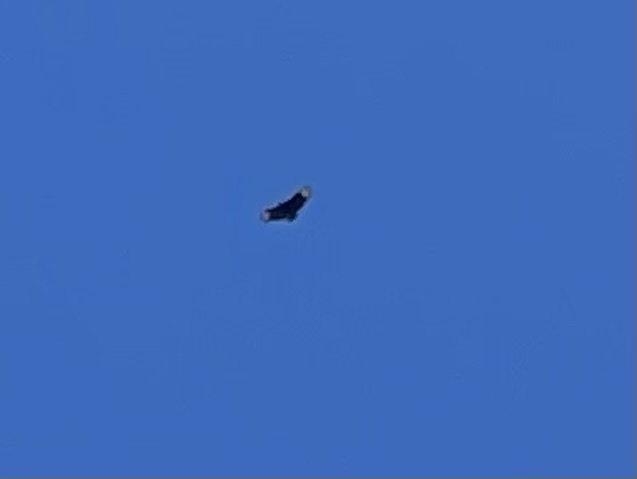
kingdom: Animalia
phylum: Chordata
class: Aves
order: Accipitriformes
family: Cathartidae
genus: Coragyps
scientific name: Coragyps atratus
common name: Black vulture
